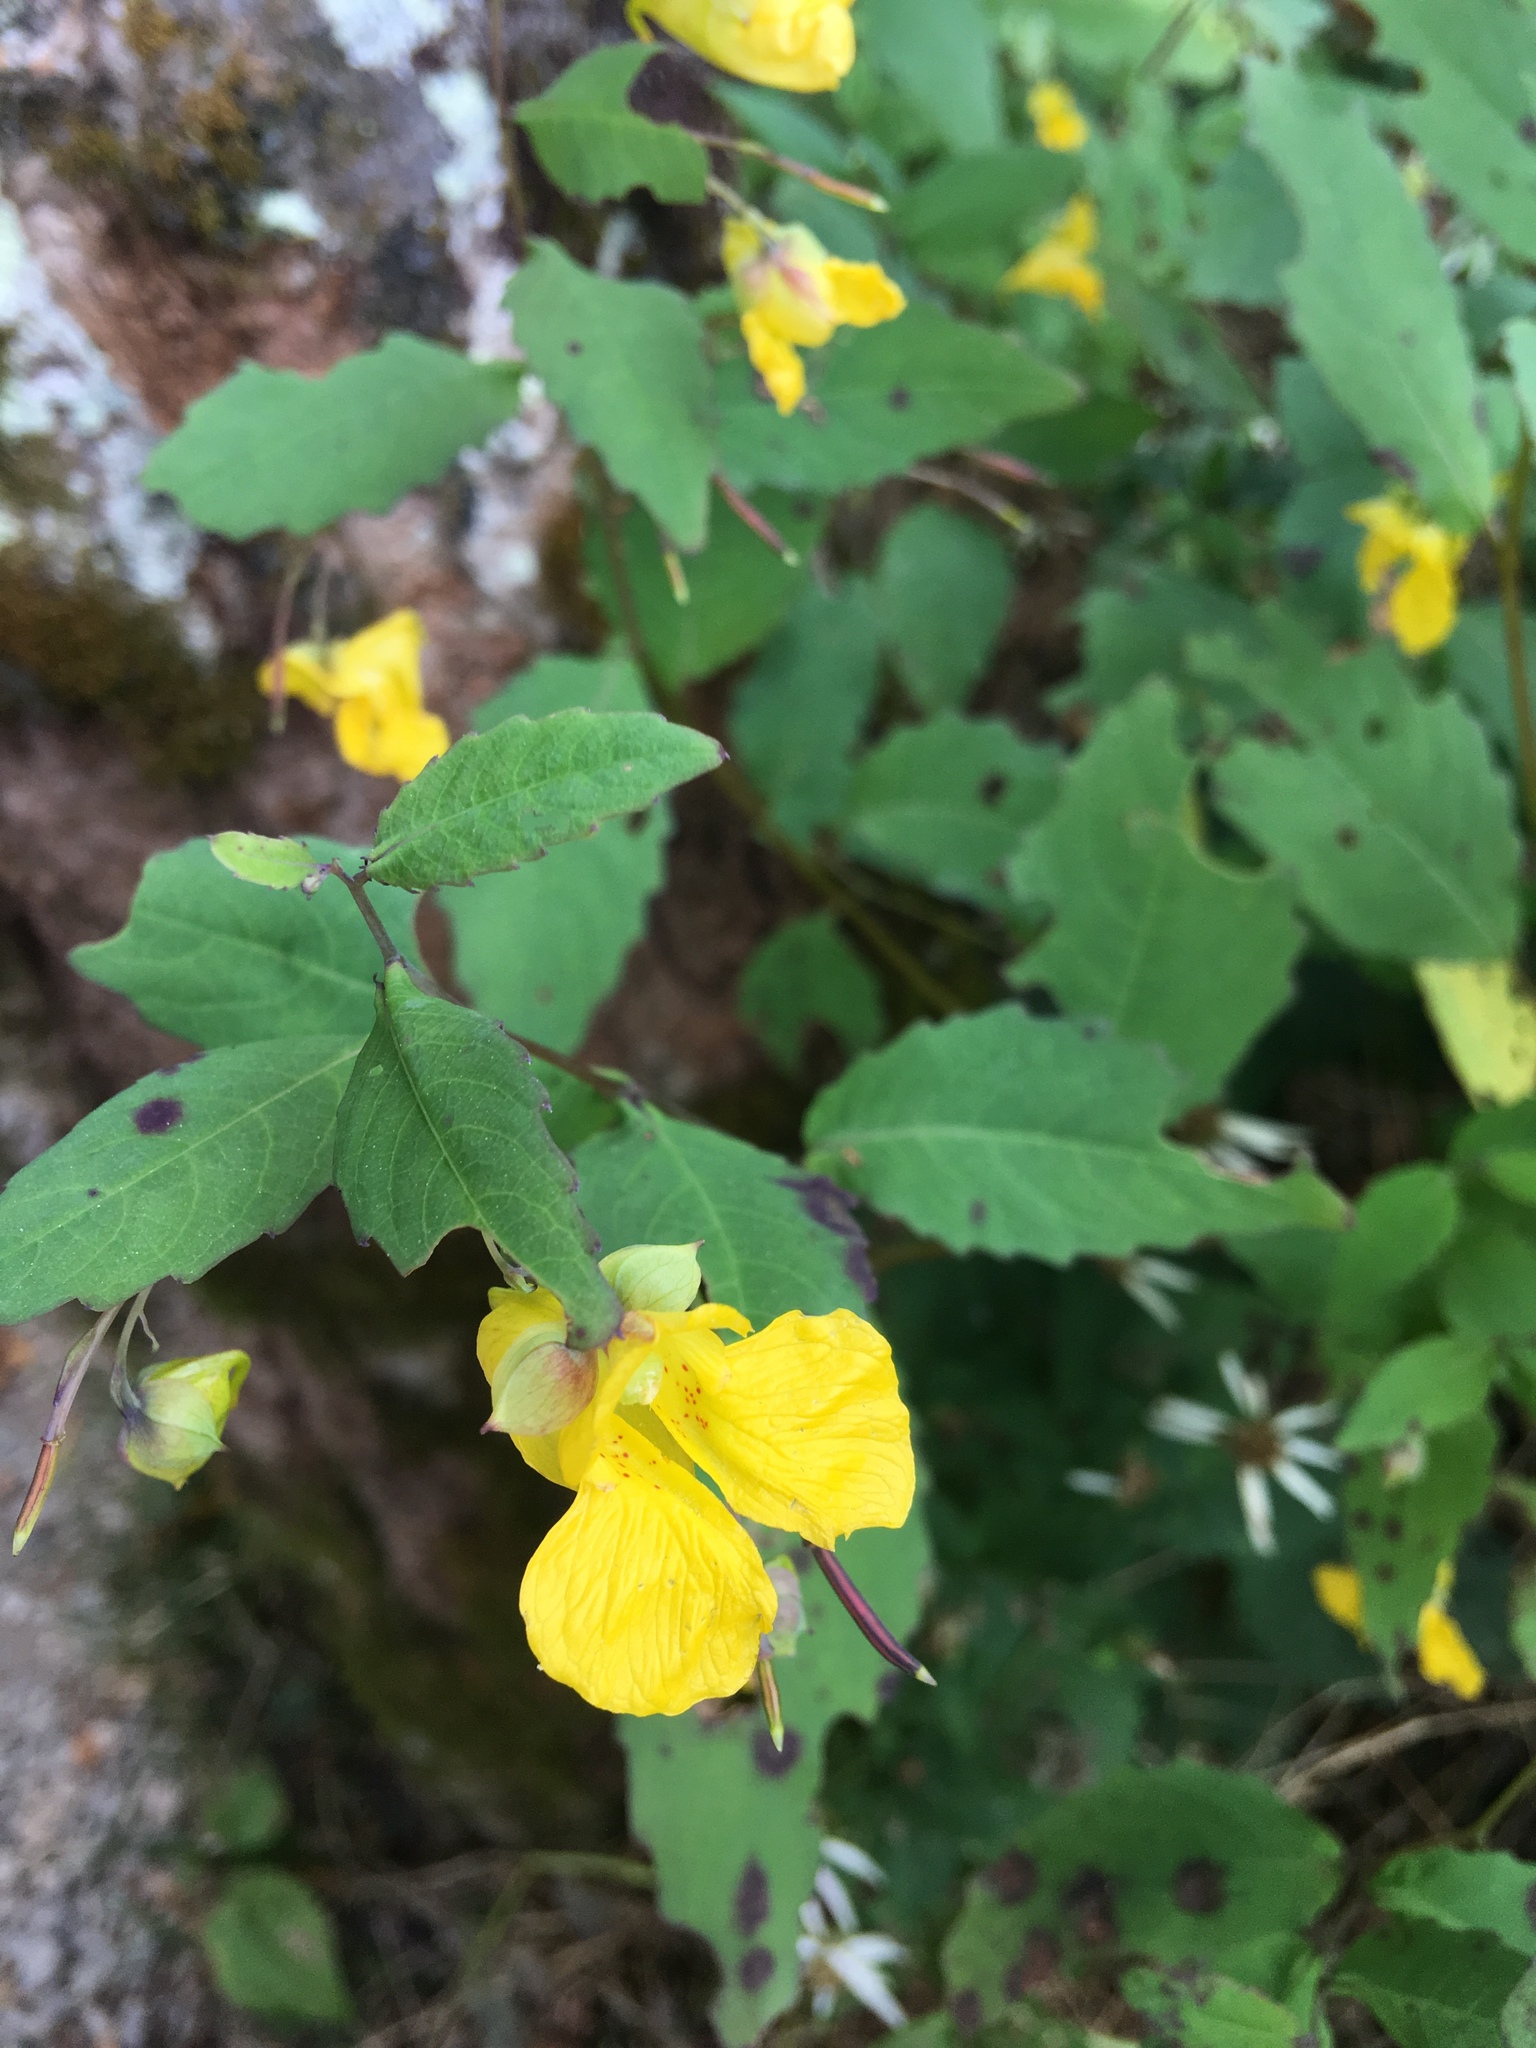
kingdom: Plantae
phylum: Tracheophyta
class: Magnoliopsida
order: Ericales
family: Balsaminaceae
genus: Impatiens
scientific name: Impatiens pallida
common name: Pale snapweed
